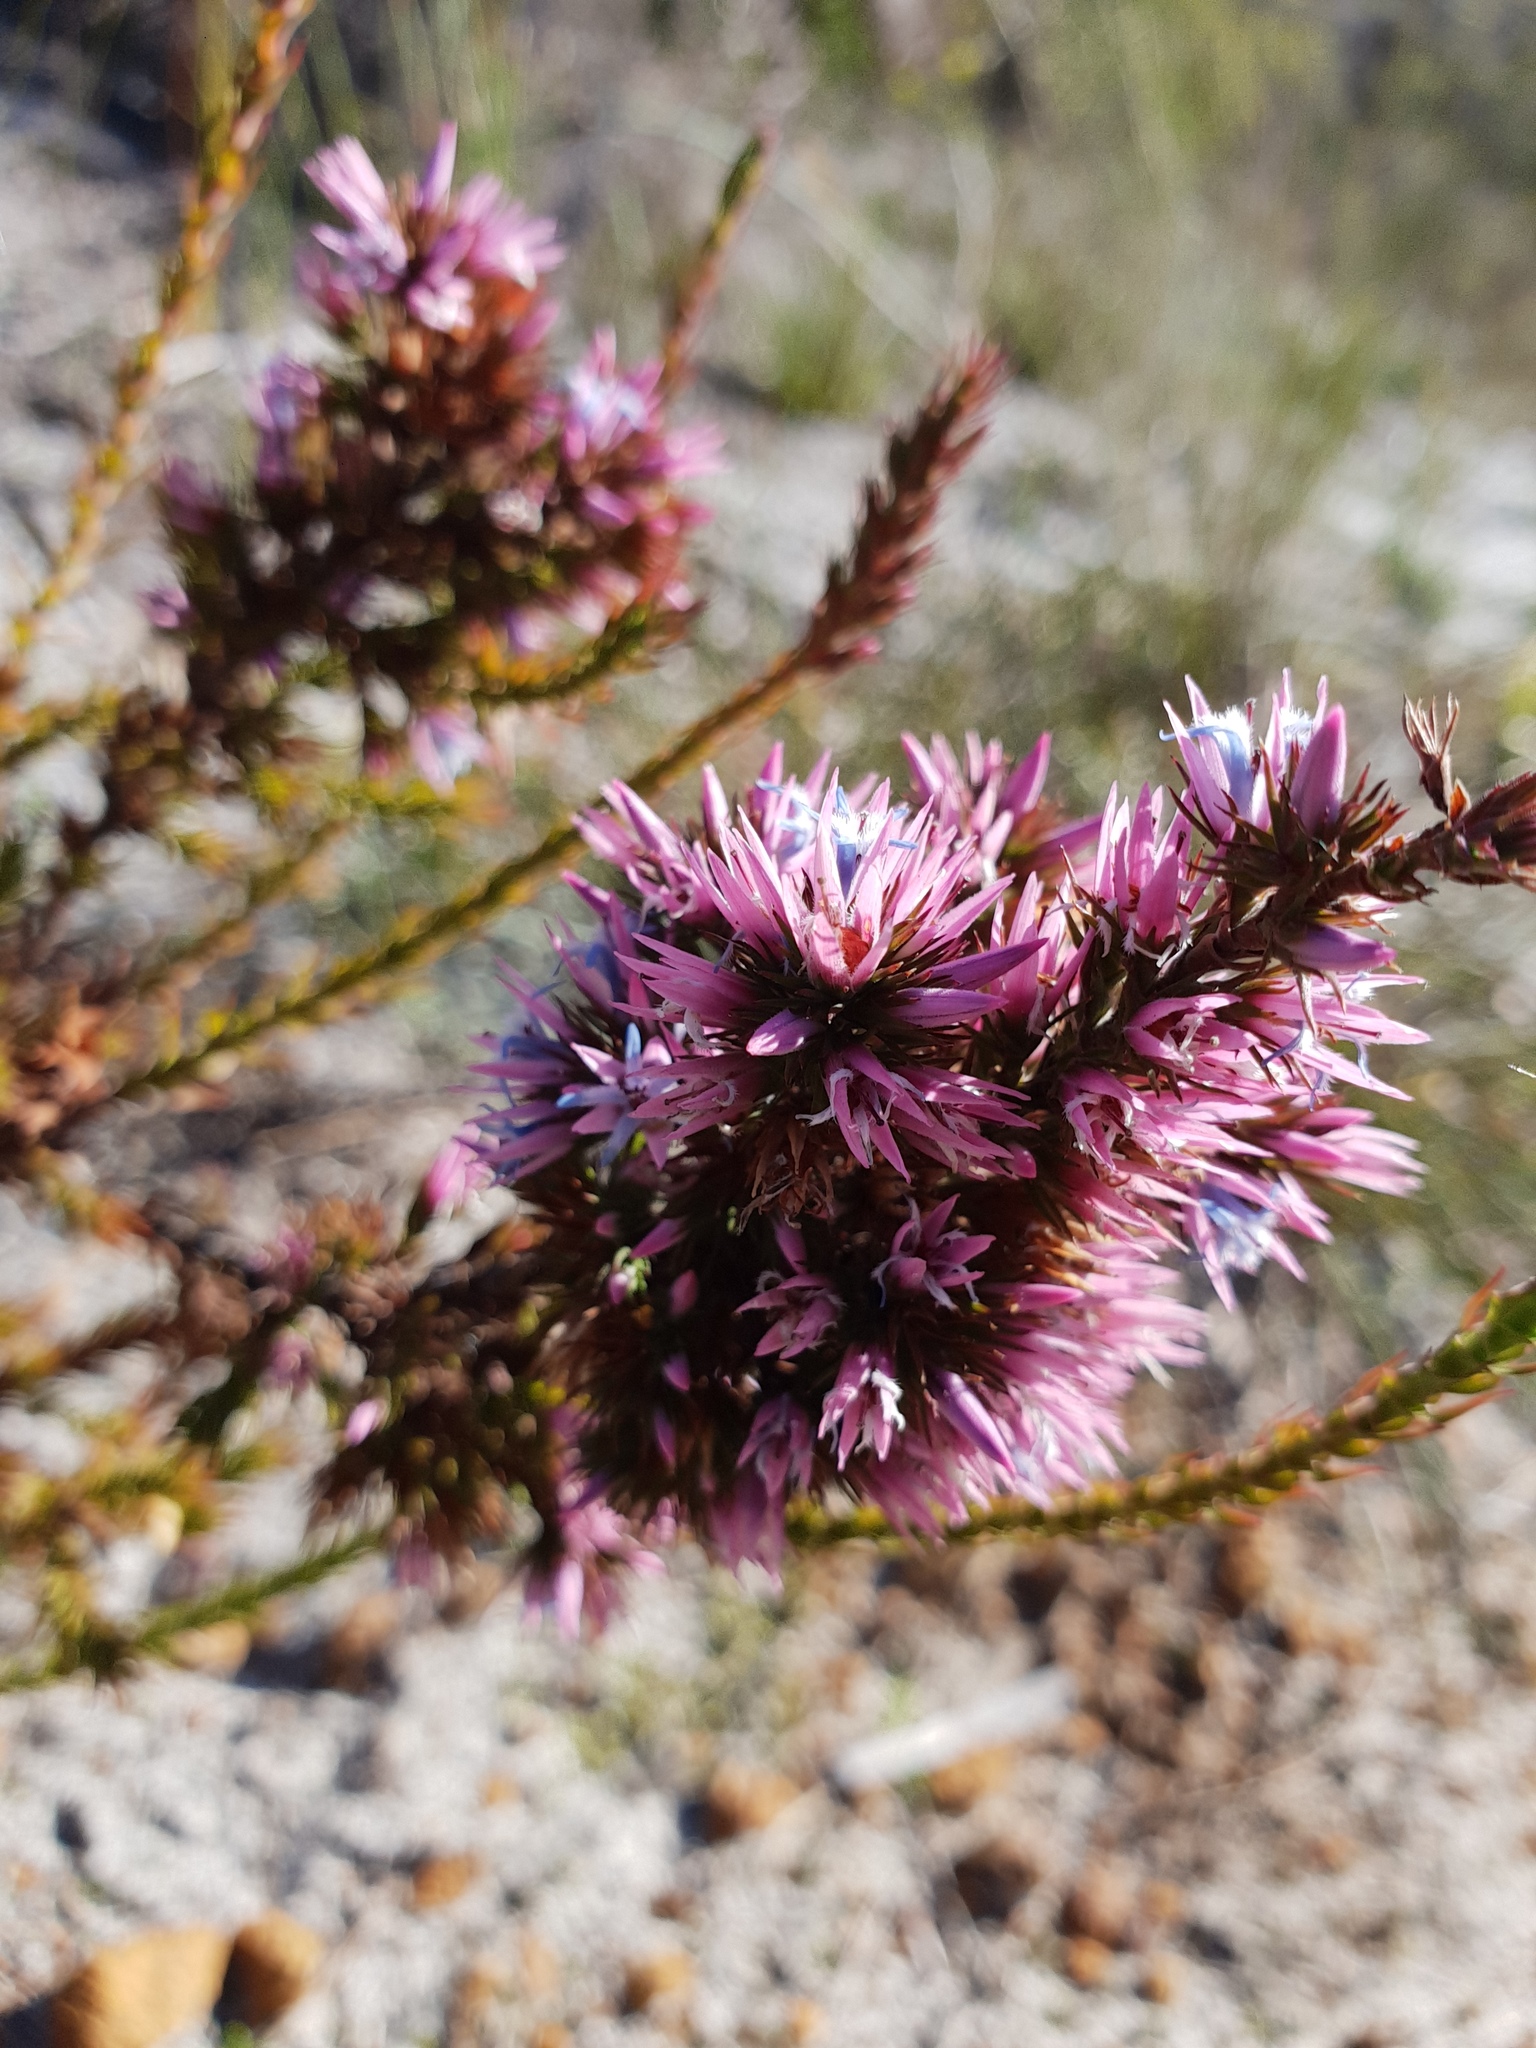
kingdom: Plantae
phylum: Tracheophyta
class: Magnoliopsida
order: Ericales
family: Ericaceae
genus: Andersonia
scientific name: Andersonia caerulea
